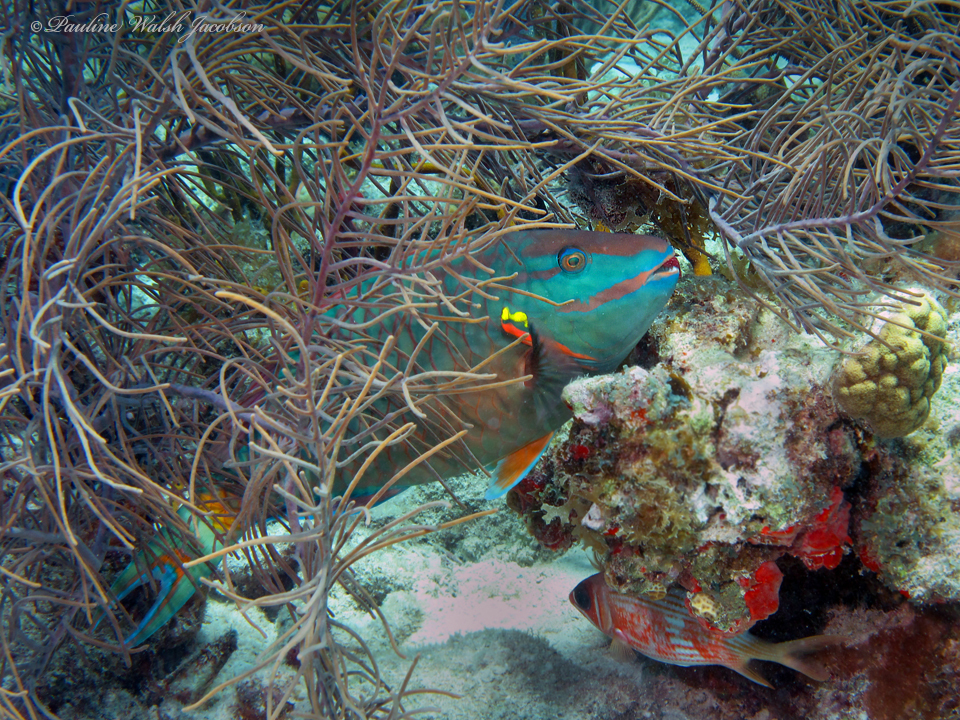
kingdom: Animalia
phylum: Chordata
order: Perciformes
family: Scaridae
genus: Sparisoma
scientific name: Sparisoma viride
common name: Stoplight parrotfish
